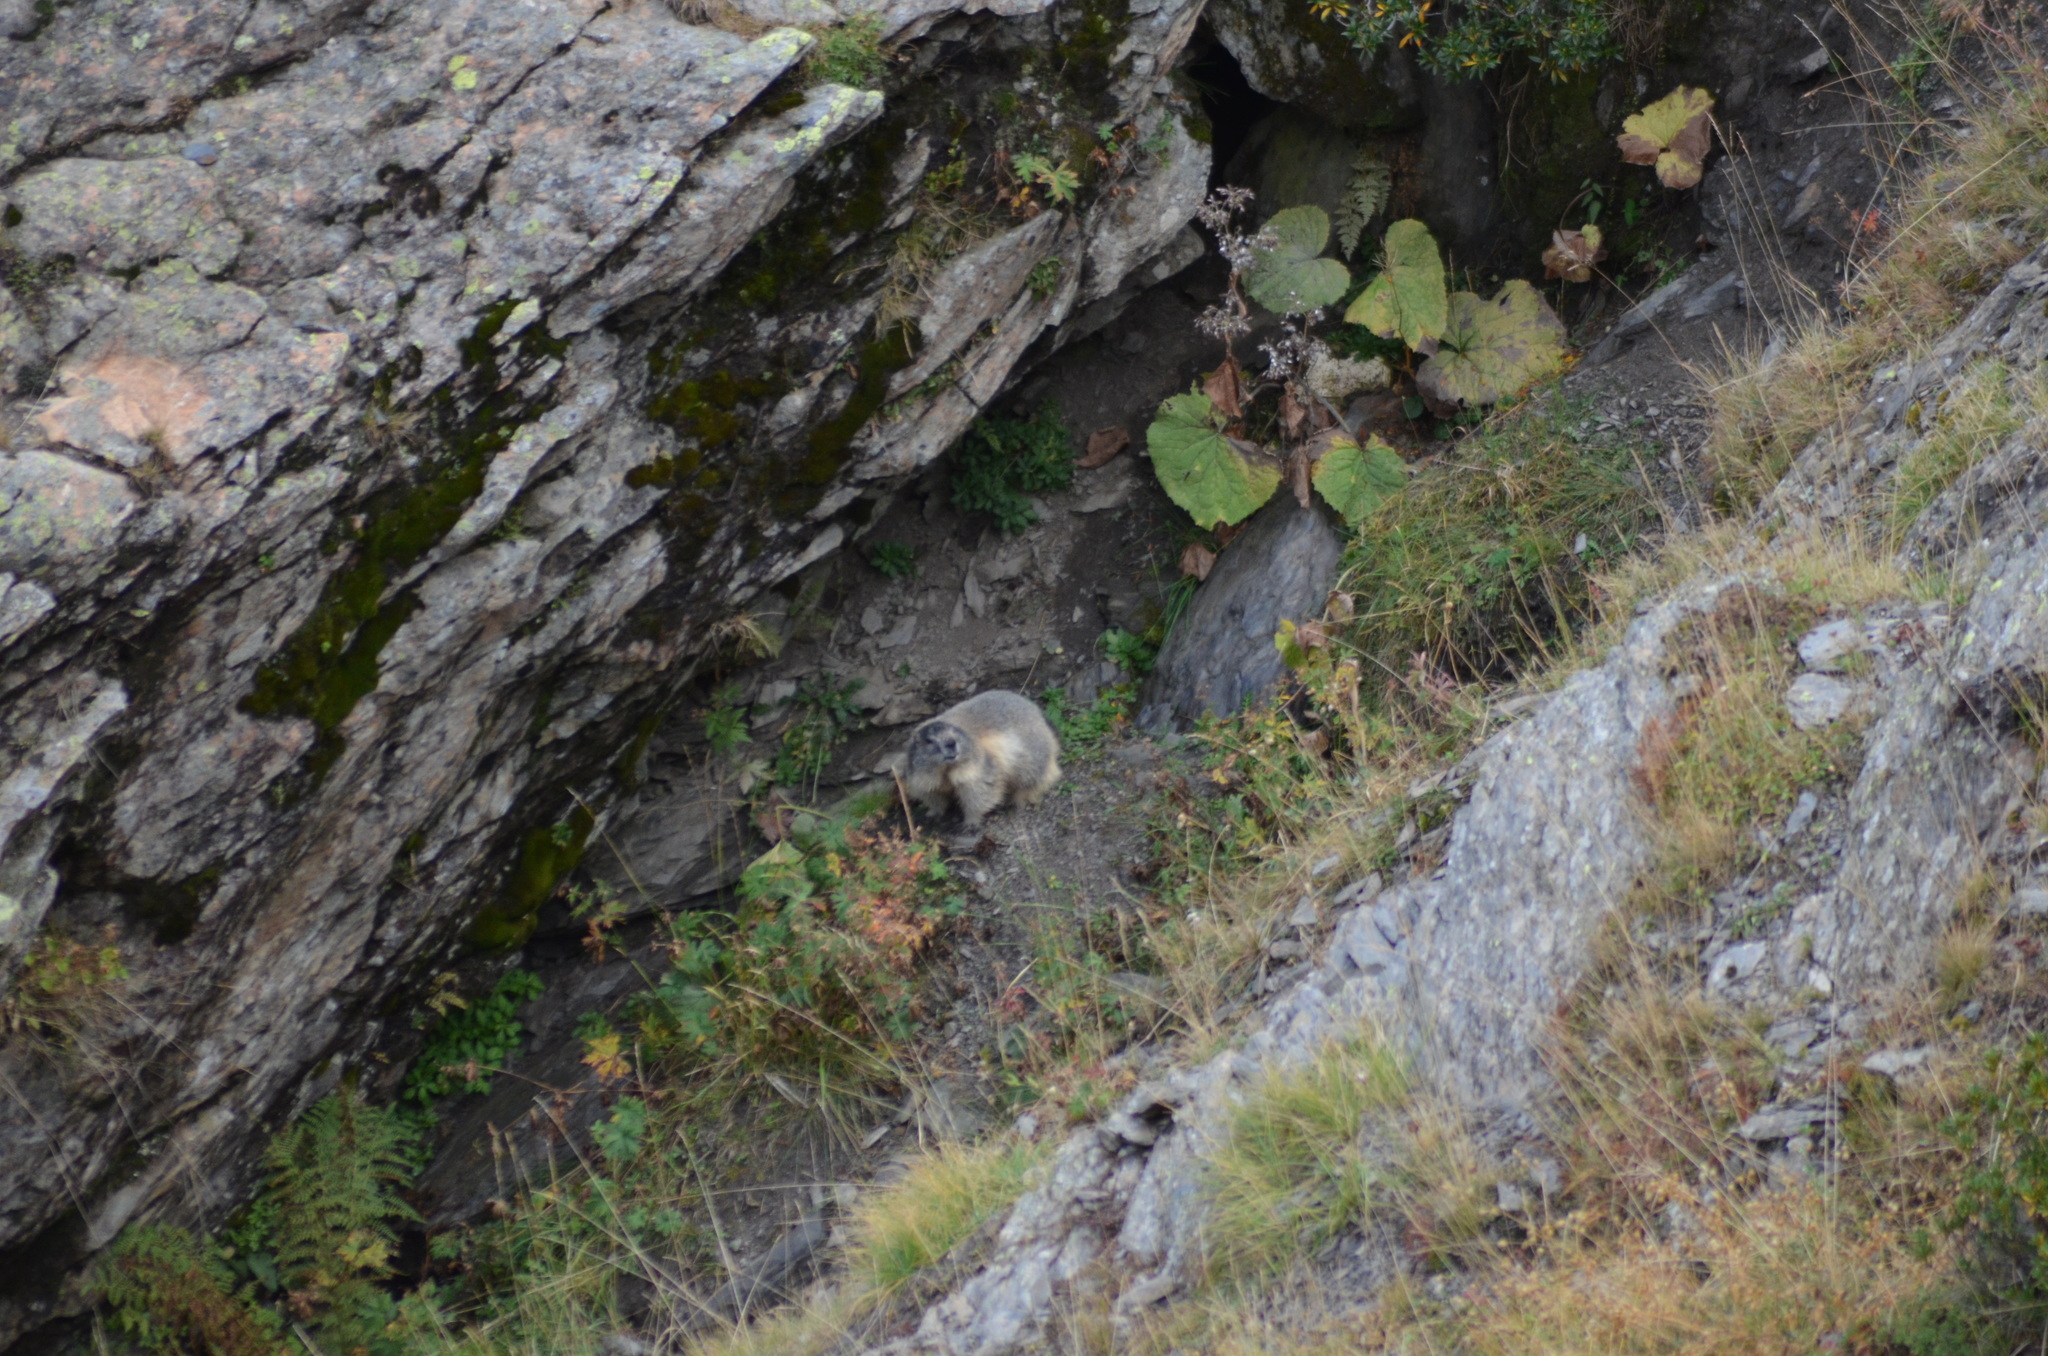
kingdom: Animalia
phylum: Chordata
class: Mammalia
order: Rodentia
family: Sciuridae
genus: Marmota
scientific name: Marmota marmota
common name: Alpine marmot
